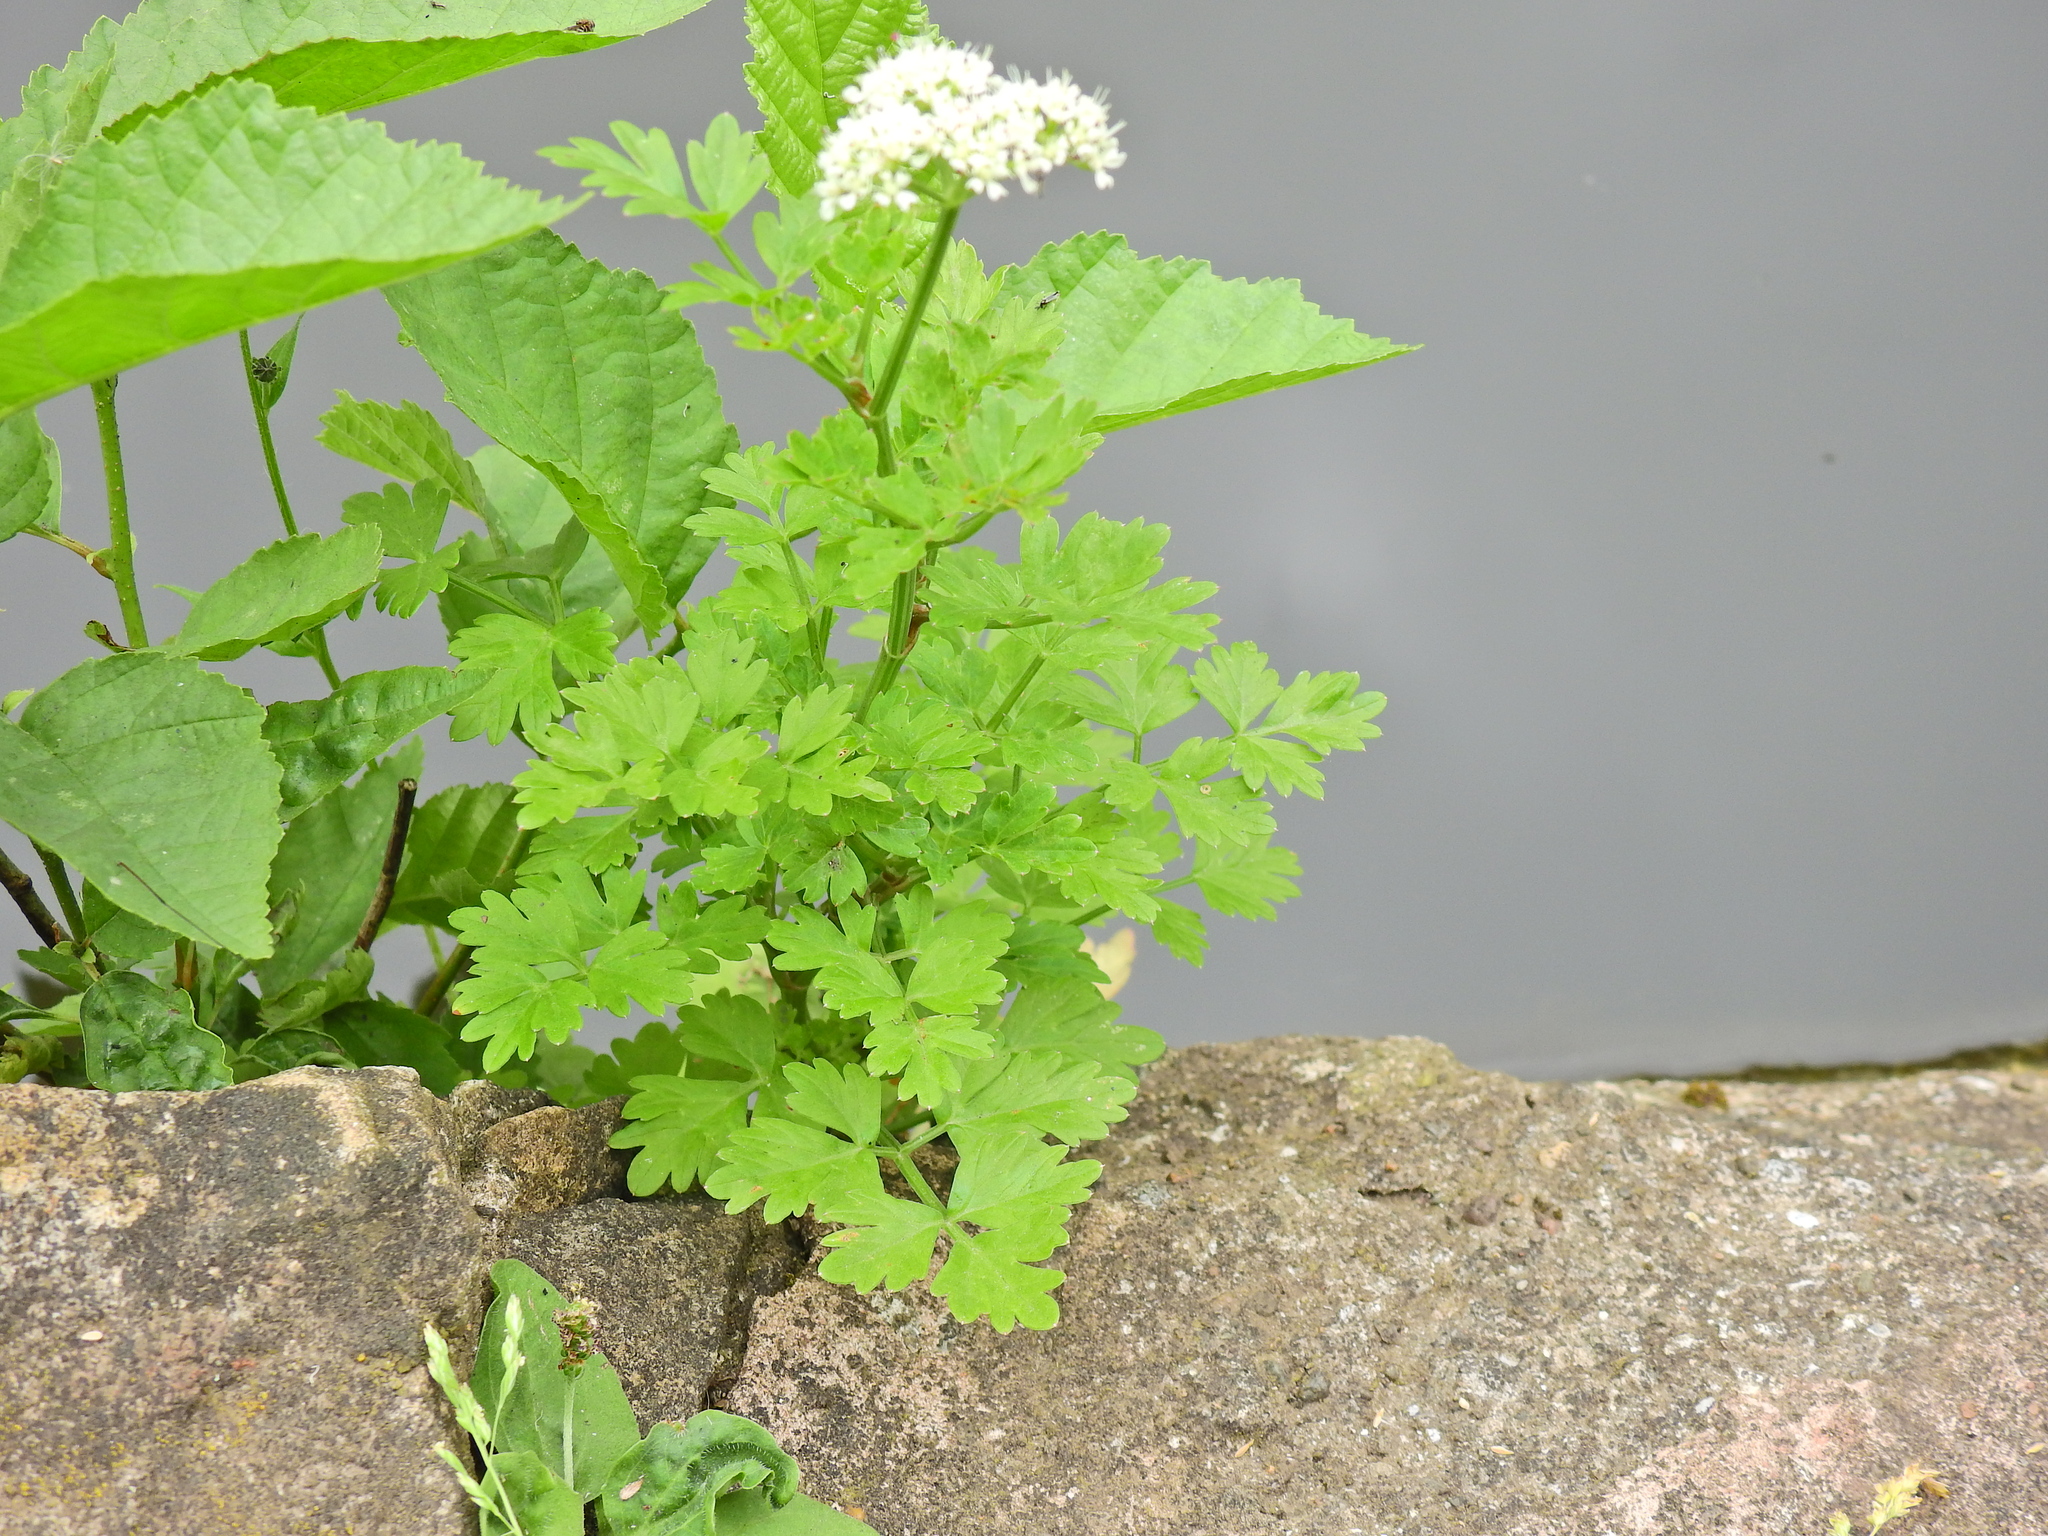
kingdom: Plantae
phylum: Tracheophyta
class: Magnoliopsida
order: Apiales
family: Apiaceae
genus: Oenanthe
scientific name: Oenanthe crocata
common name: Hemlock water-dropwort
